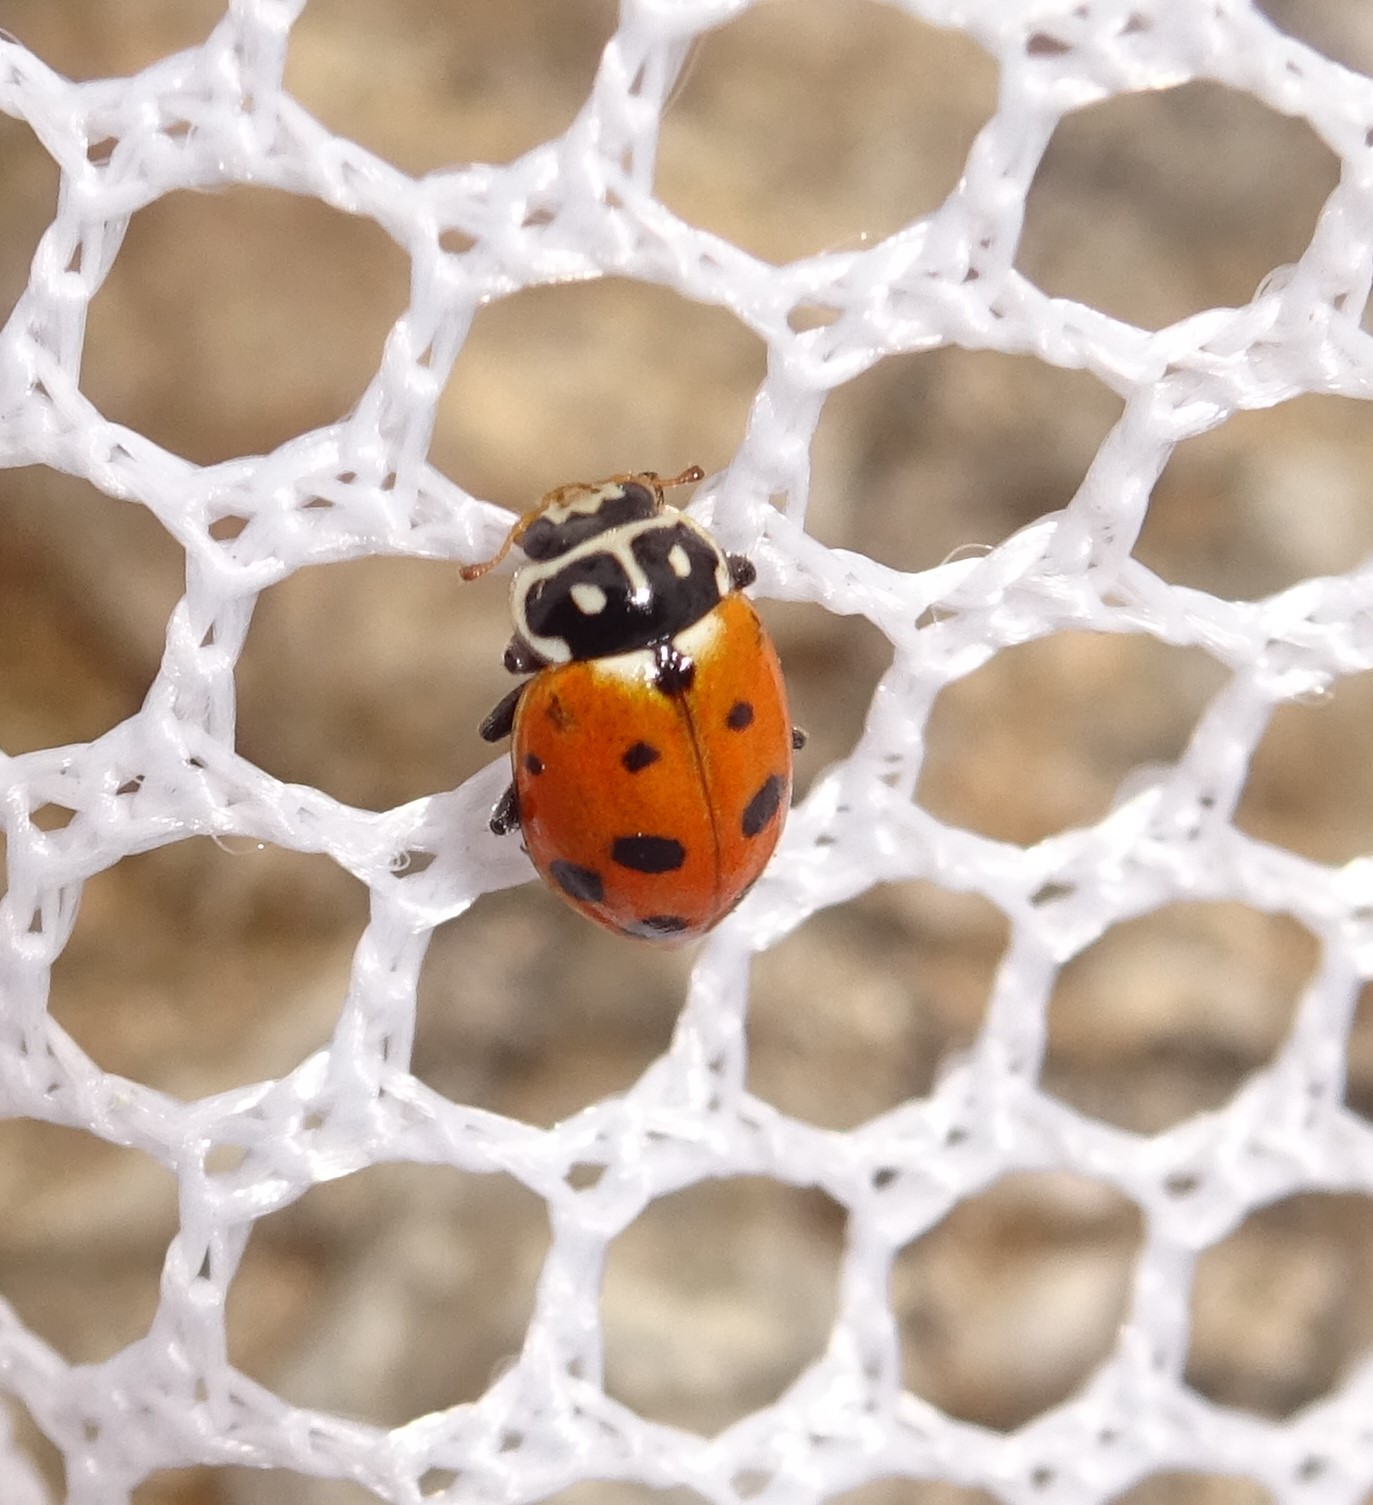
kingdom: Animalia
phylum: Arthropoda
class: Insecta
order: Coleoptera
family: Coccinellidae
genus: Hippodamia
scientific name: Hippodamia variegata
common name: Ladybird beetle
